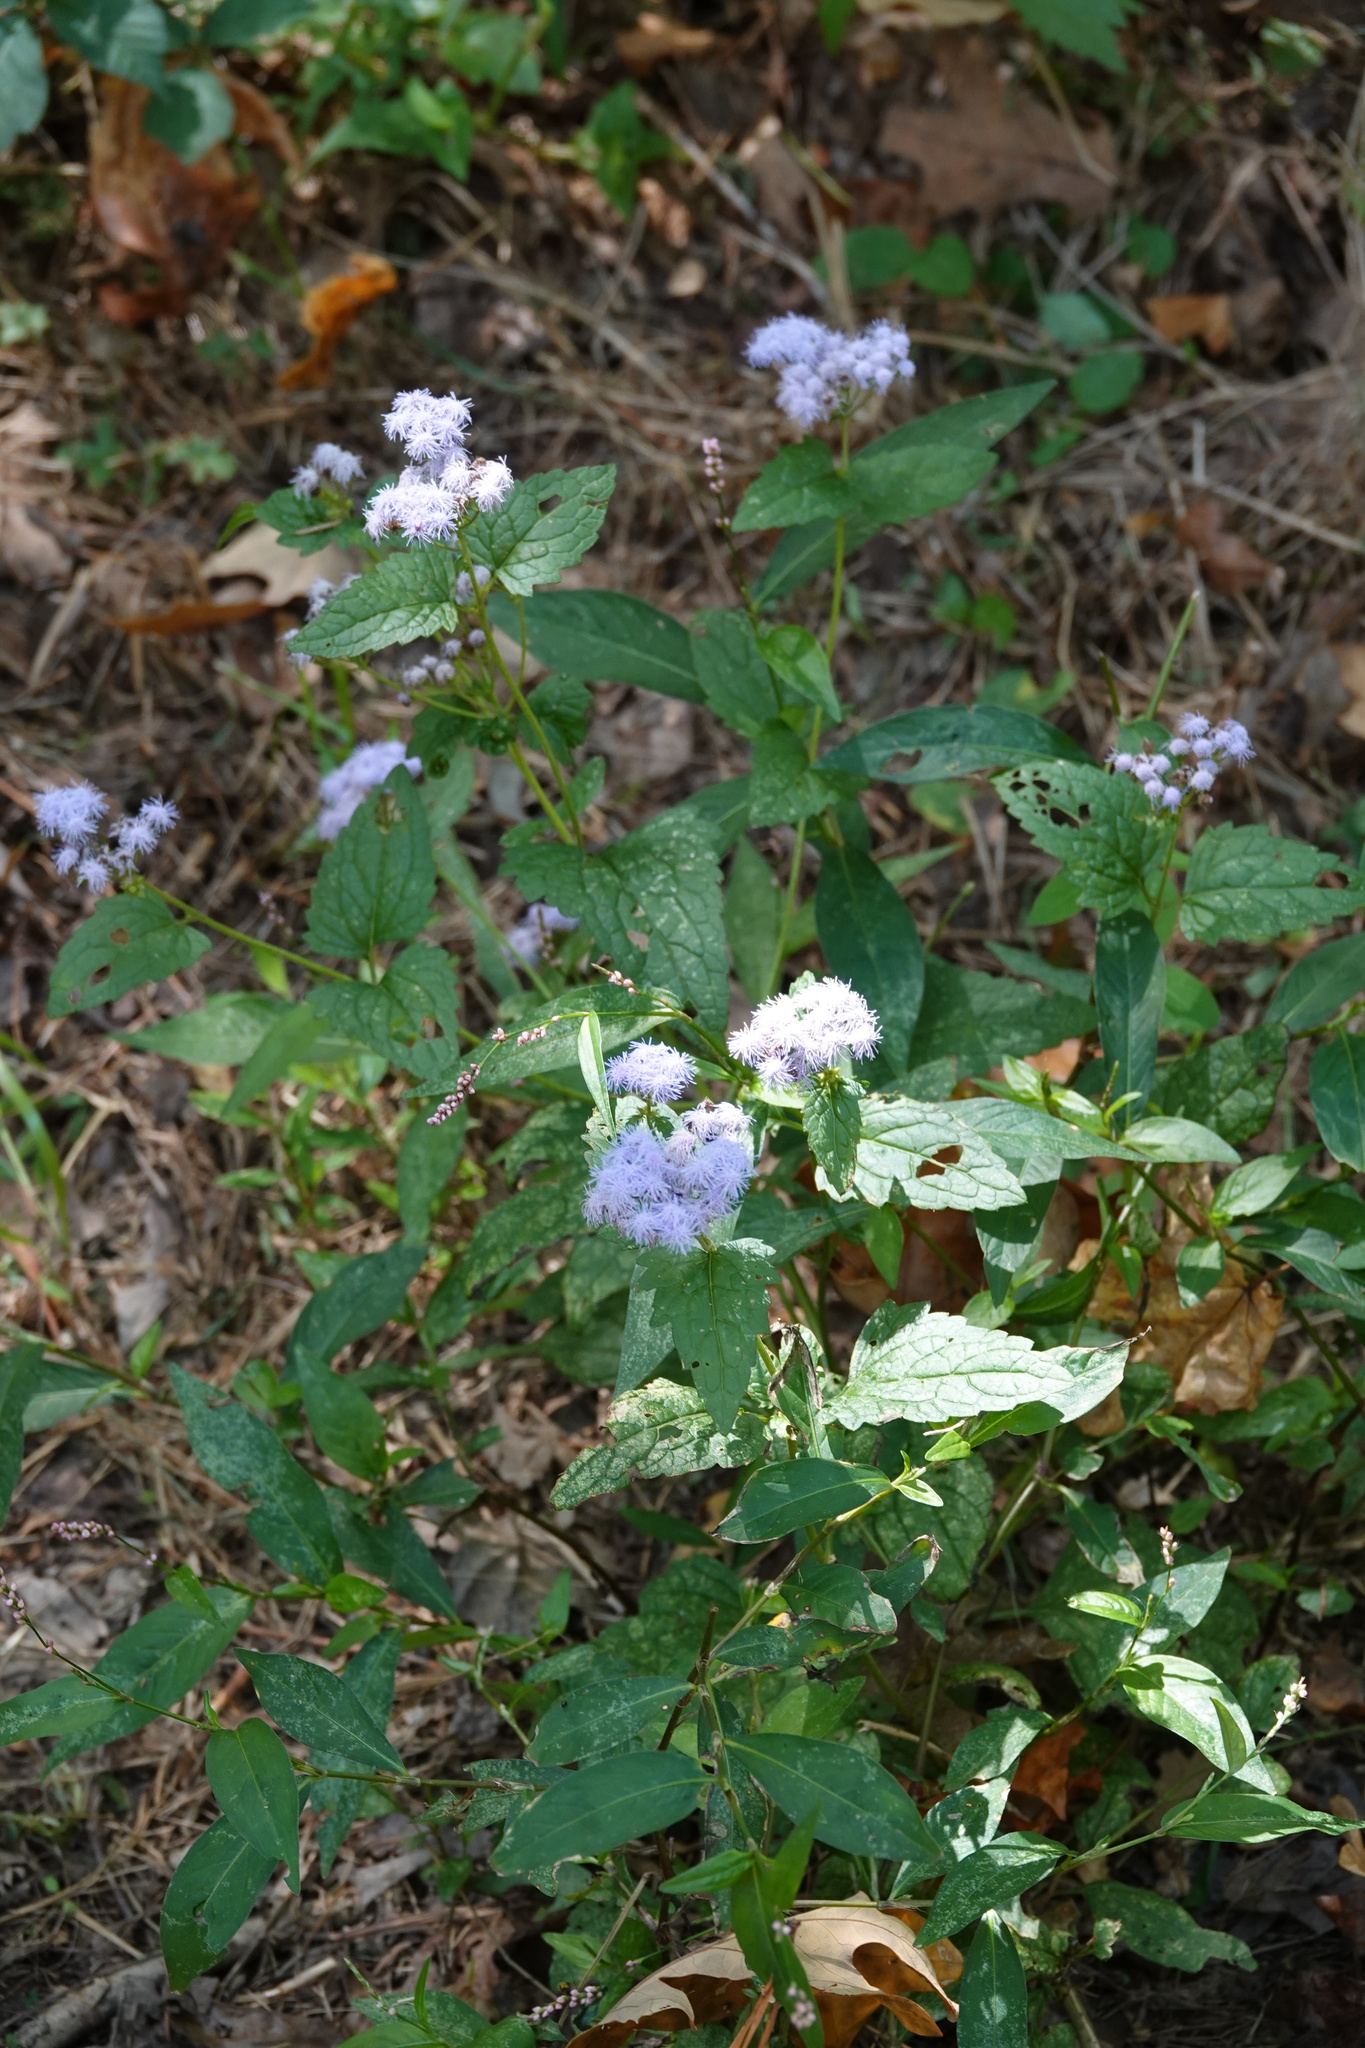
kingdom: Plantae
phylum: Tracheophyta
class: Magnoliopsida
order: Asterales
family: Asteraceae
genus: Conoclinium
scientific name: Conoclinium coelestinum
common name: Blue mistflower
